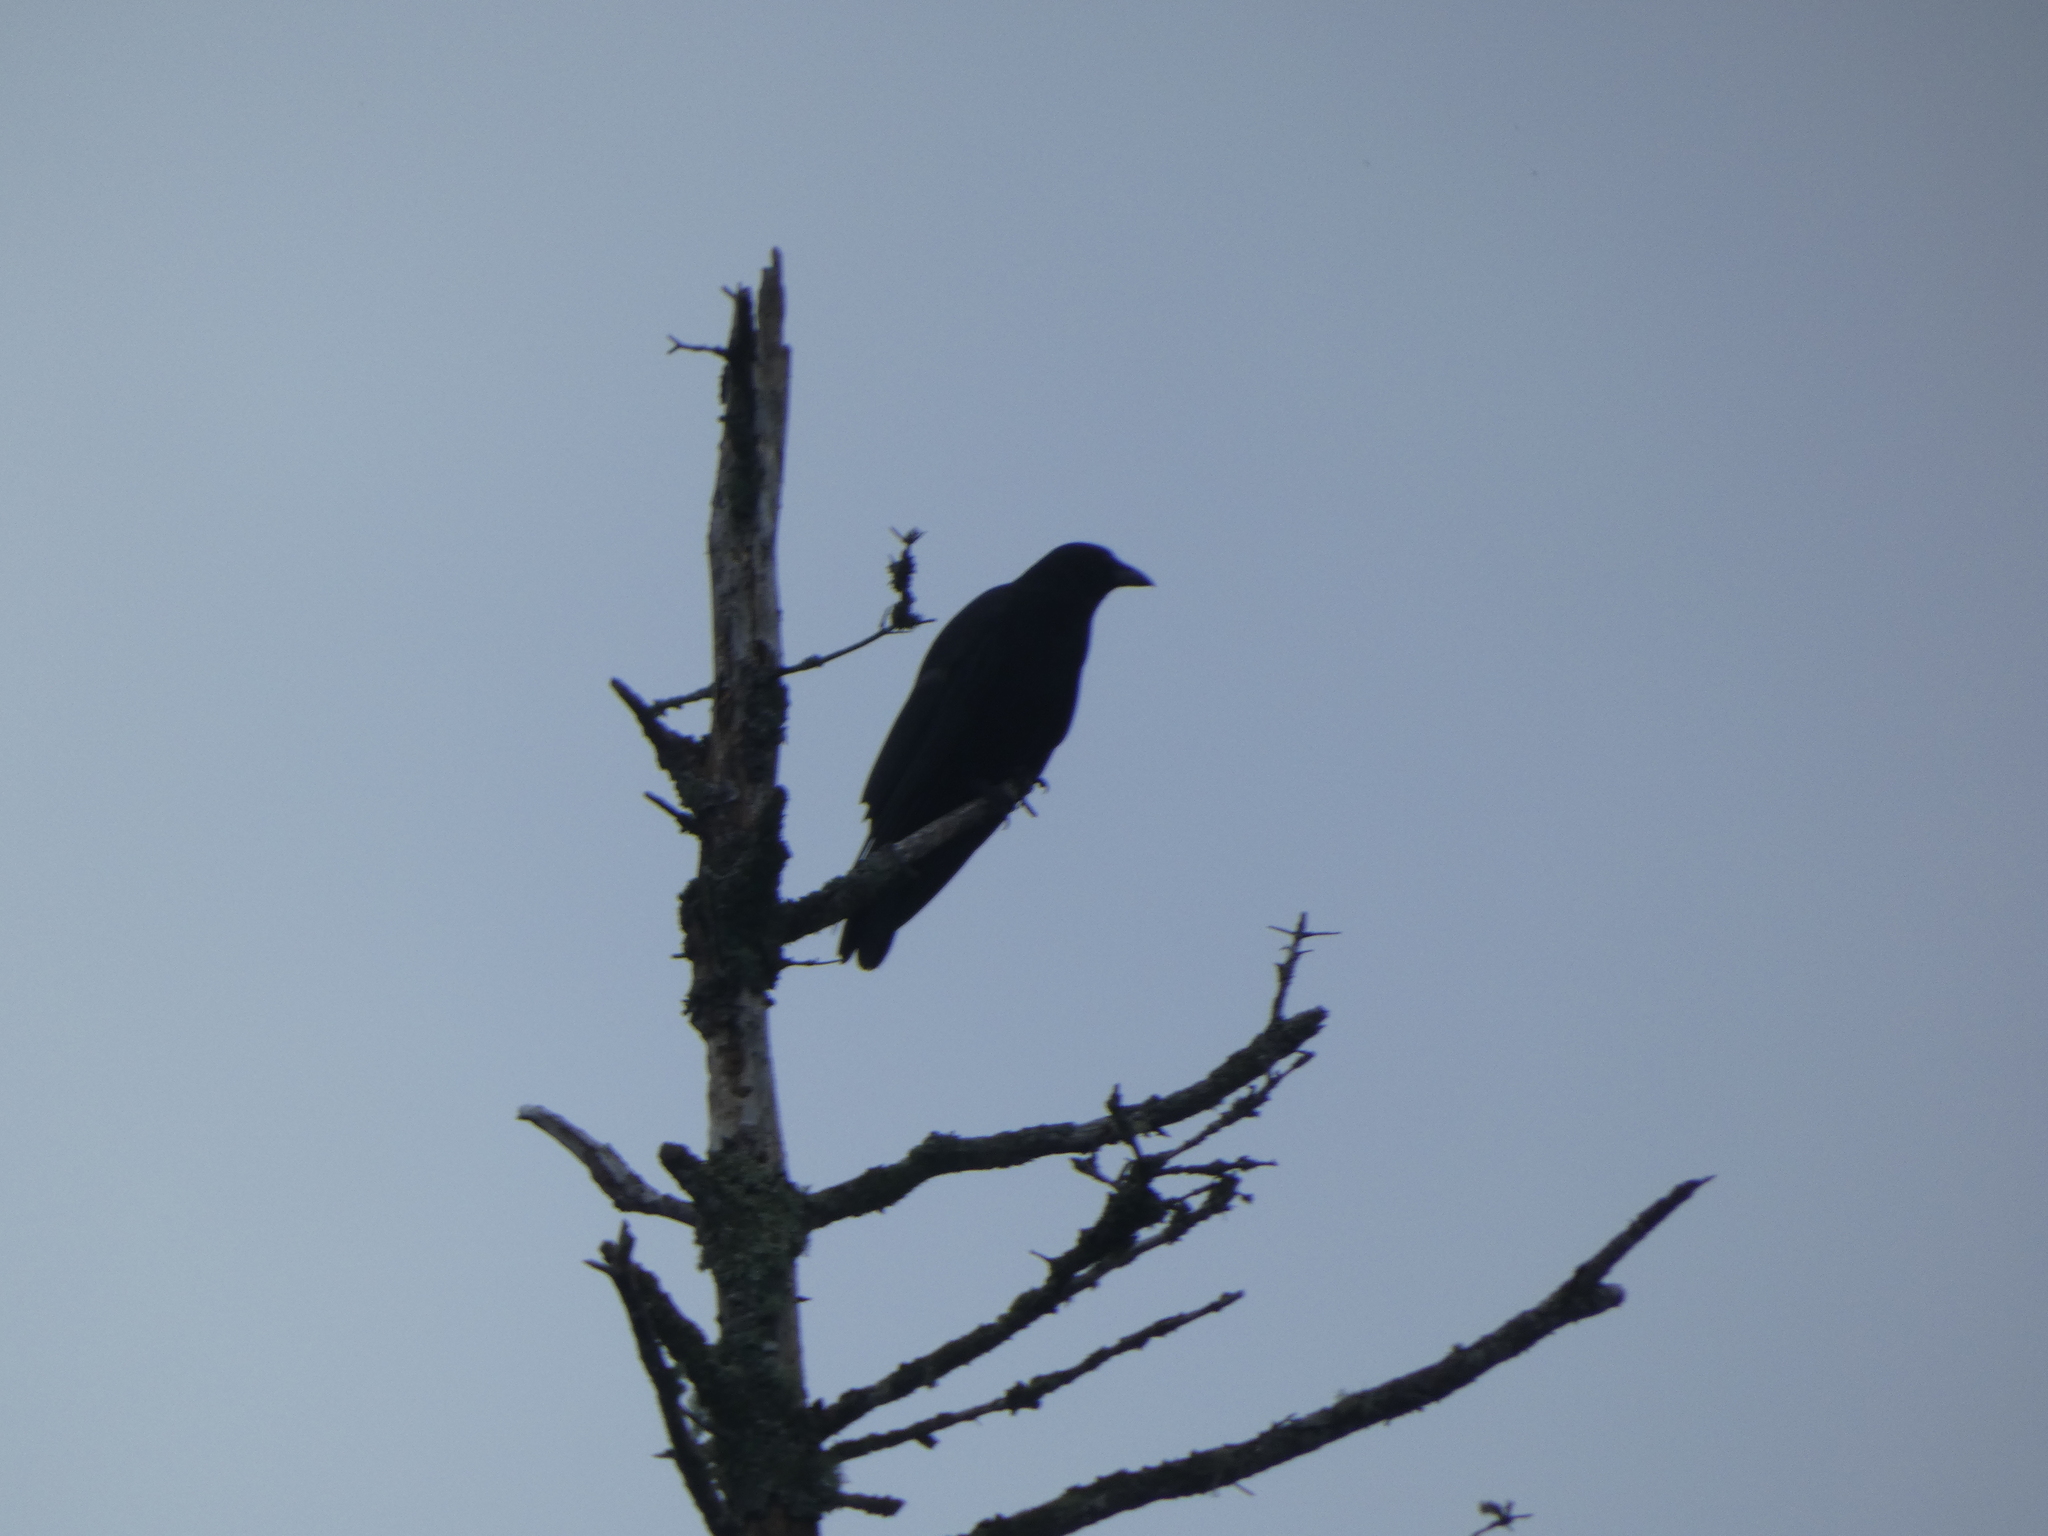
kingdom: Animalia
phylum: Chordata
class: Aves
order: Passeriformes
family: Corvidae
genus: Corvus
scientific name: Corvus corax
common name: Common raven
